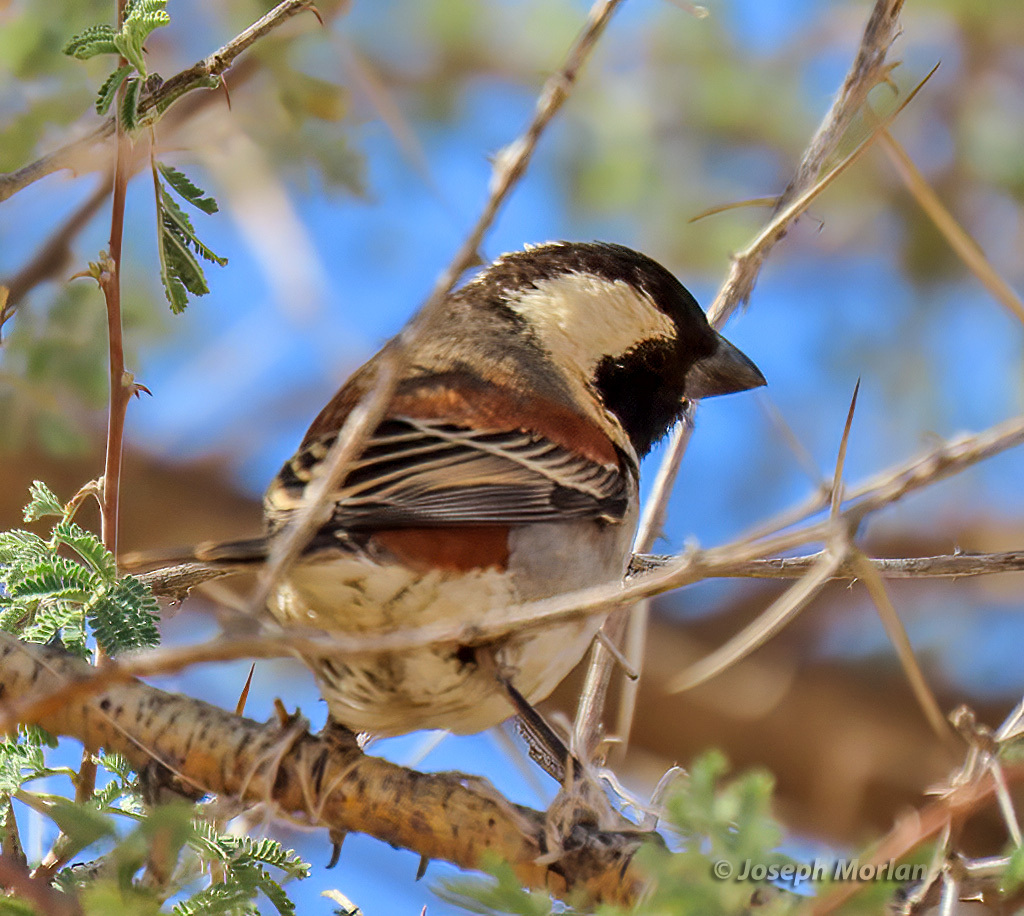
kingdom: Animalia
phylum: Chordata
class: Aves
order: Passeriformes
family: Passeridae
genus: Passer
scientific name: Passer melanurus
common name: Cape sparrow
